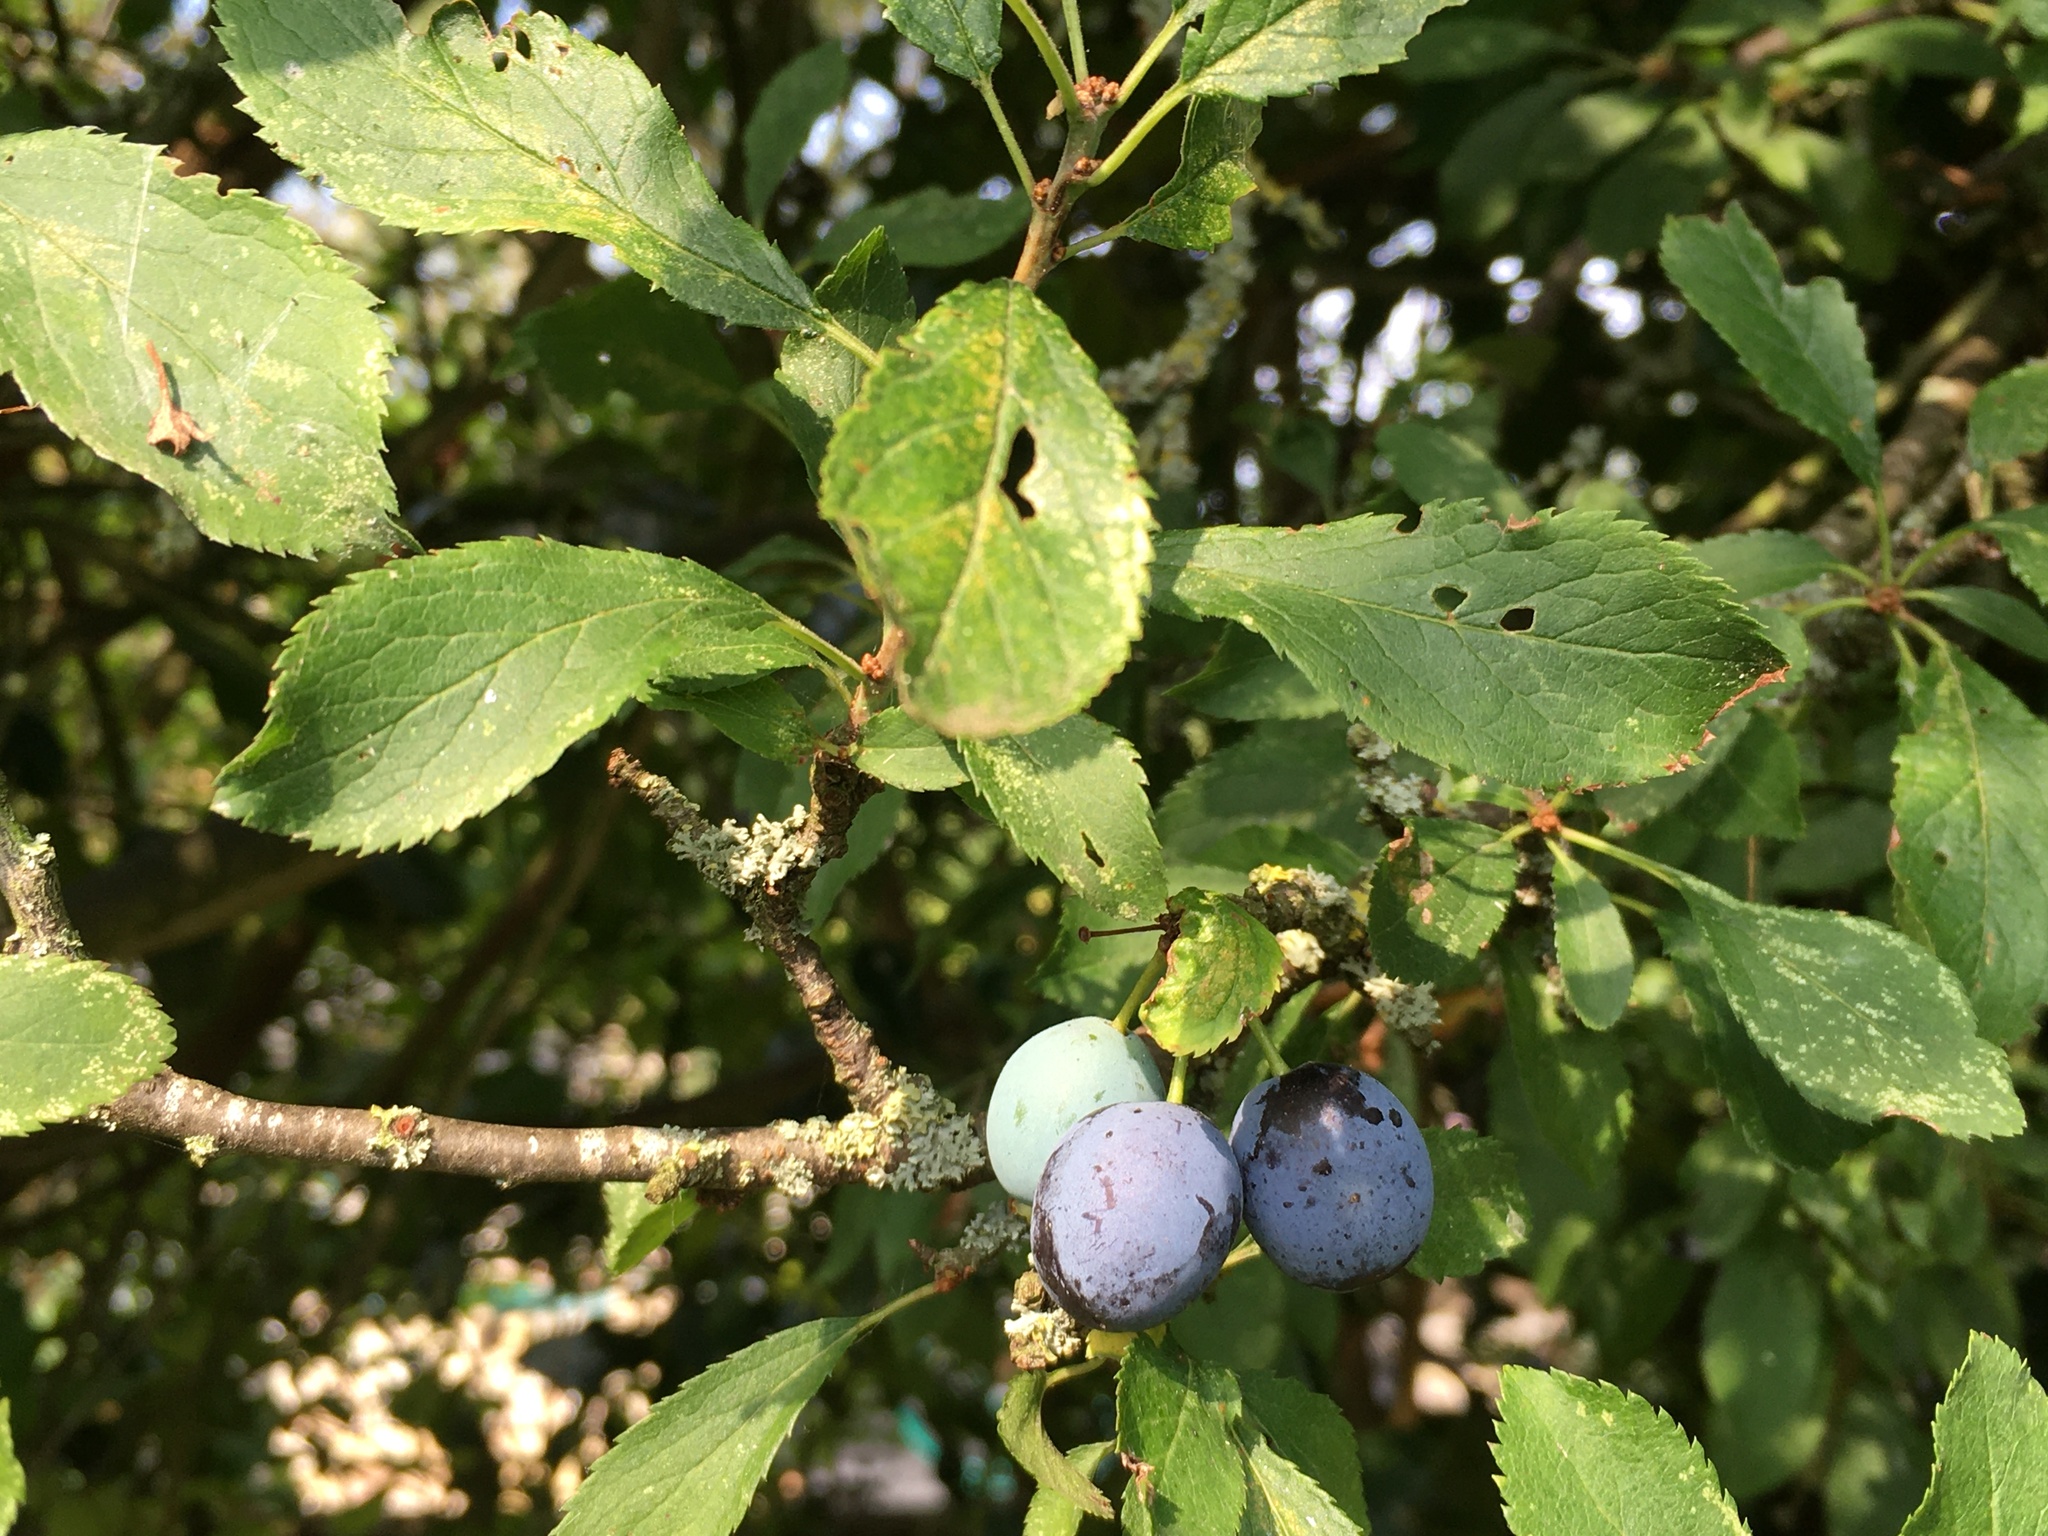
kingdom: Plantae
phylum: Tracheophyta
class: Magnoliopsida
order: Rosales
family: Rosaceae
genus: Prunus
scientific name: Prunus spinosa
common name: Blackthorn
